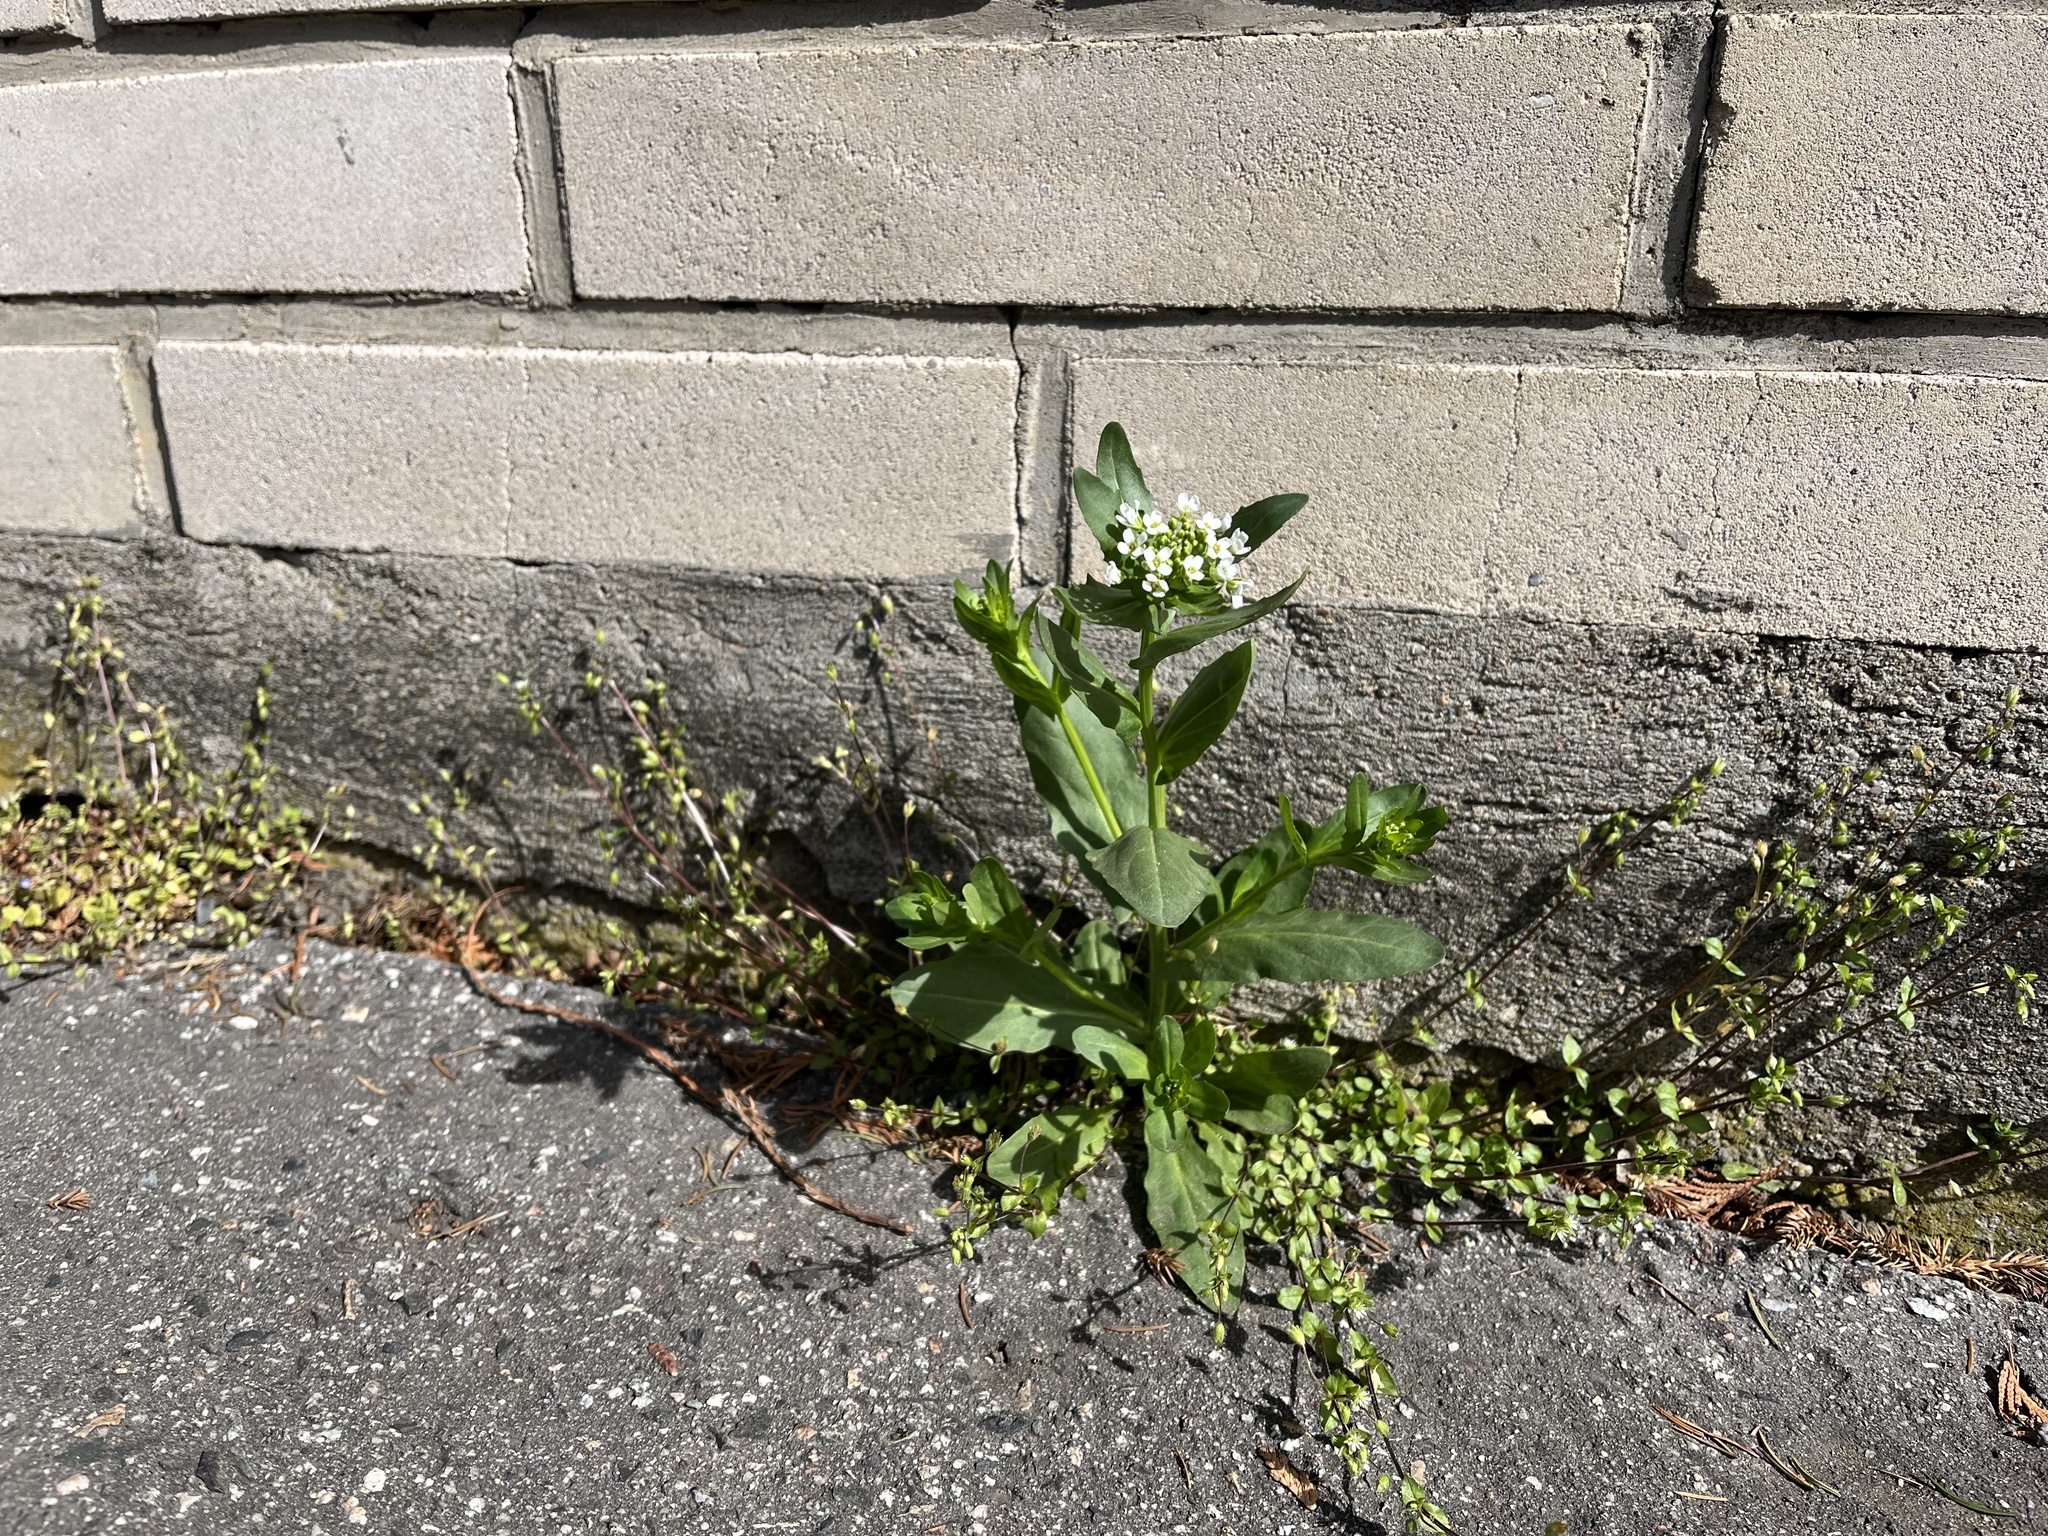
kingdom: Plantae
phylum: Tracheophyta
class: Magnoliopsida
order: Brassicales
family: Brassicaceae
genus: Thlaspi
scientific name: Thlaspi arvense
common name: Field pennycress
